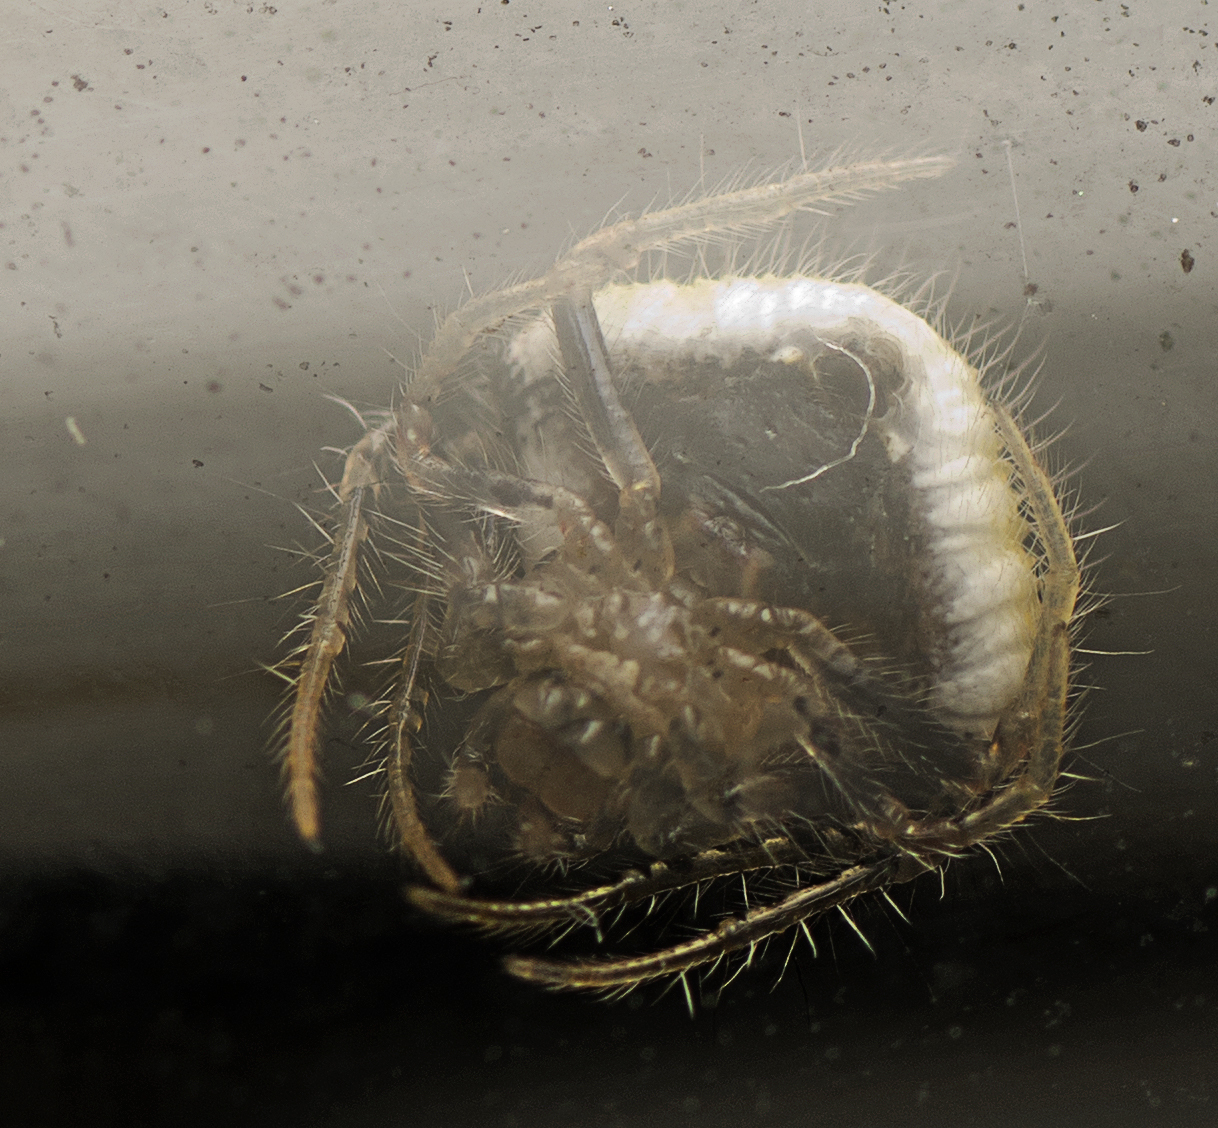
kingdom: Animalia
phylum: Arthropoda
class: Arachnida
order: Araneae
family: Araneidae
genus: Poecilopachys
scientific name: Poecilopachys australasia
